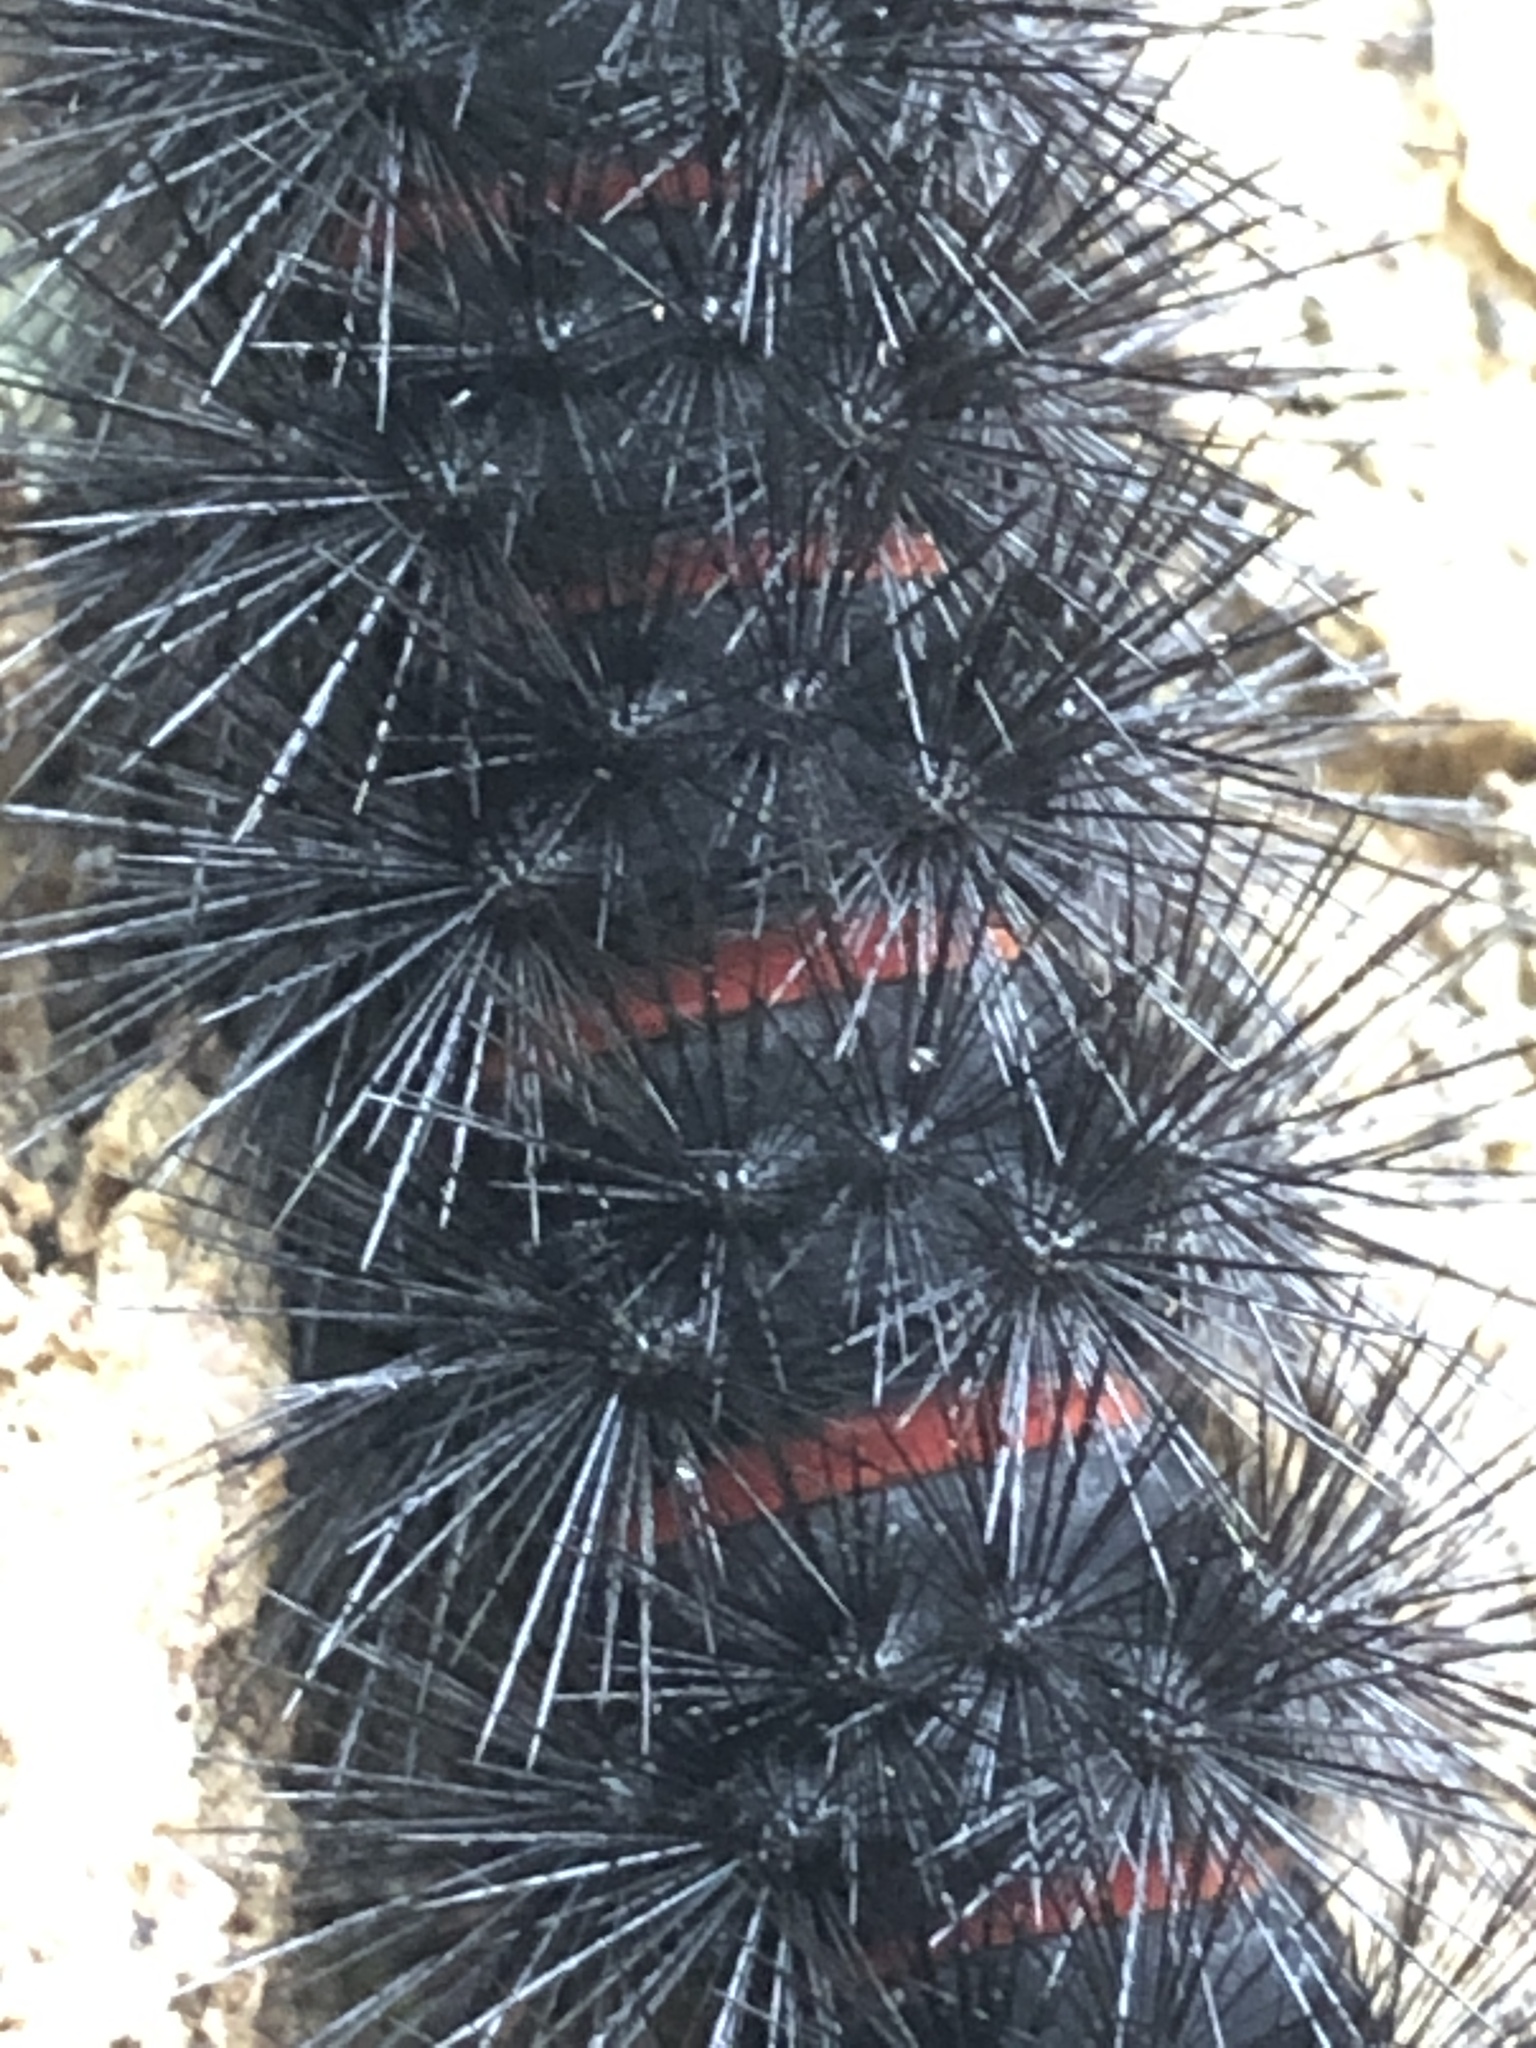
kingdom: Animalia
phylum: Arthropoda
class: Insecta
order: Lepidoptera
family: Erebidae
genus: Hypercompe
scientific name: Hypercompe scribonia
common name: Giant leopard moth
